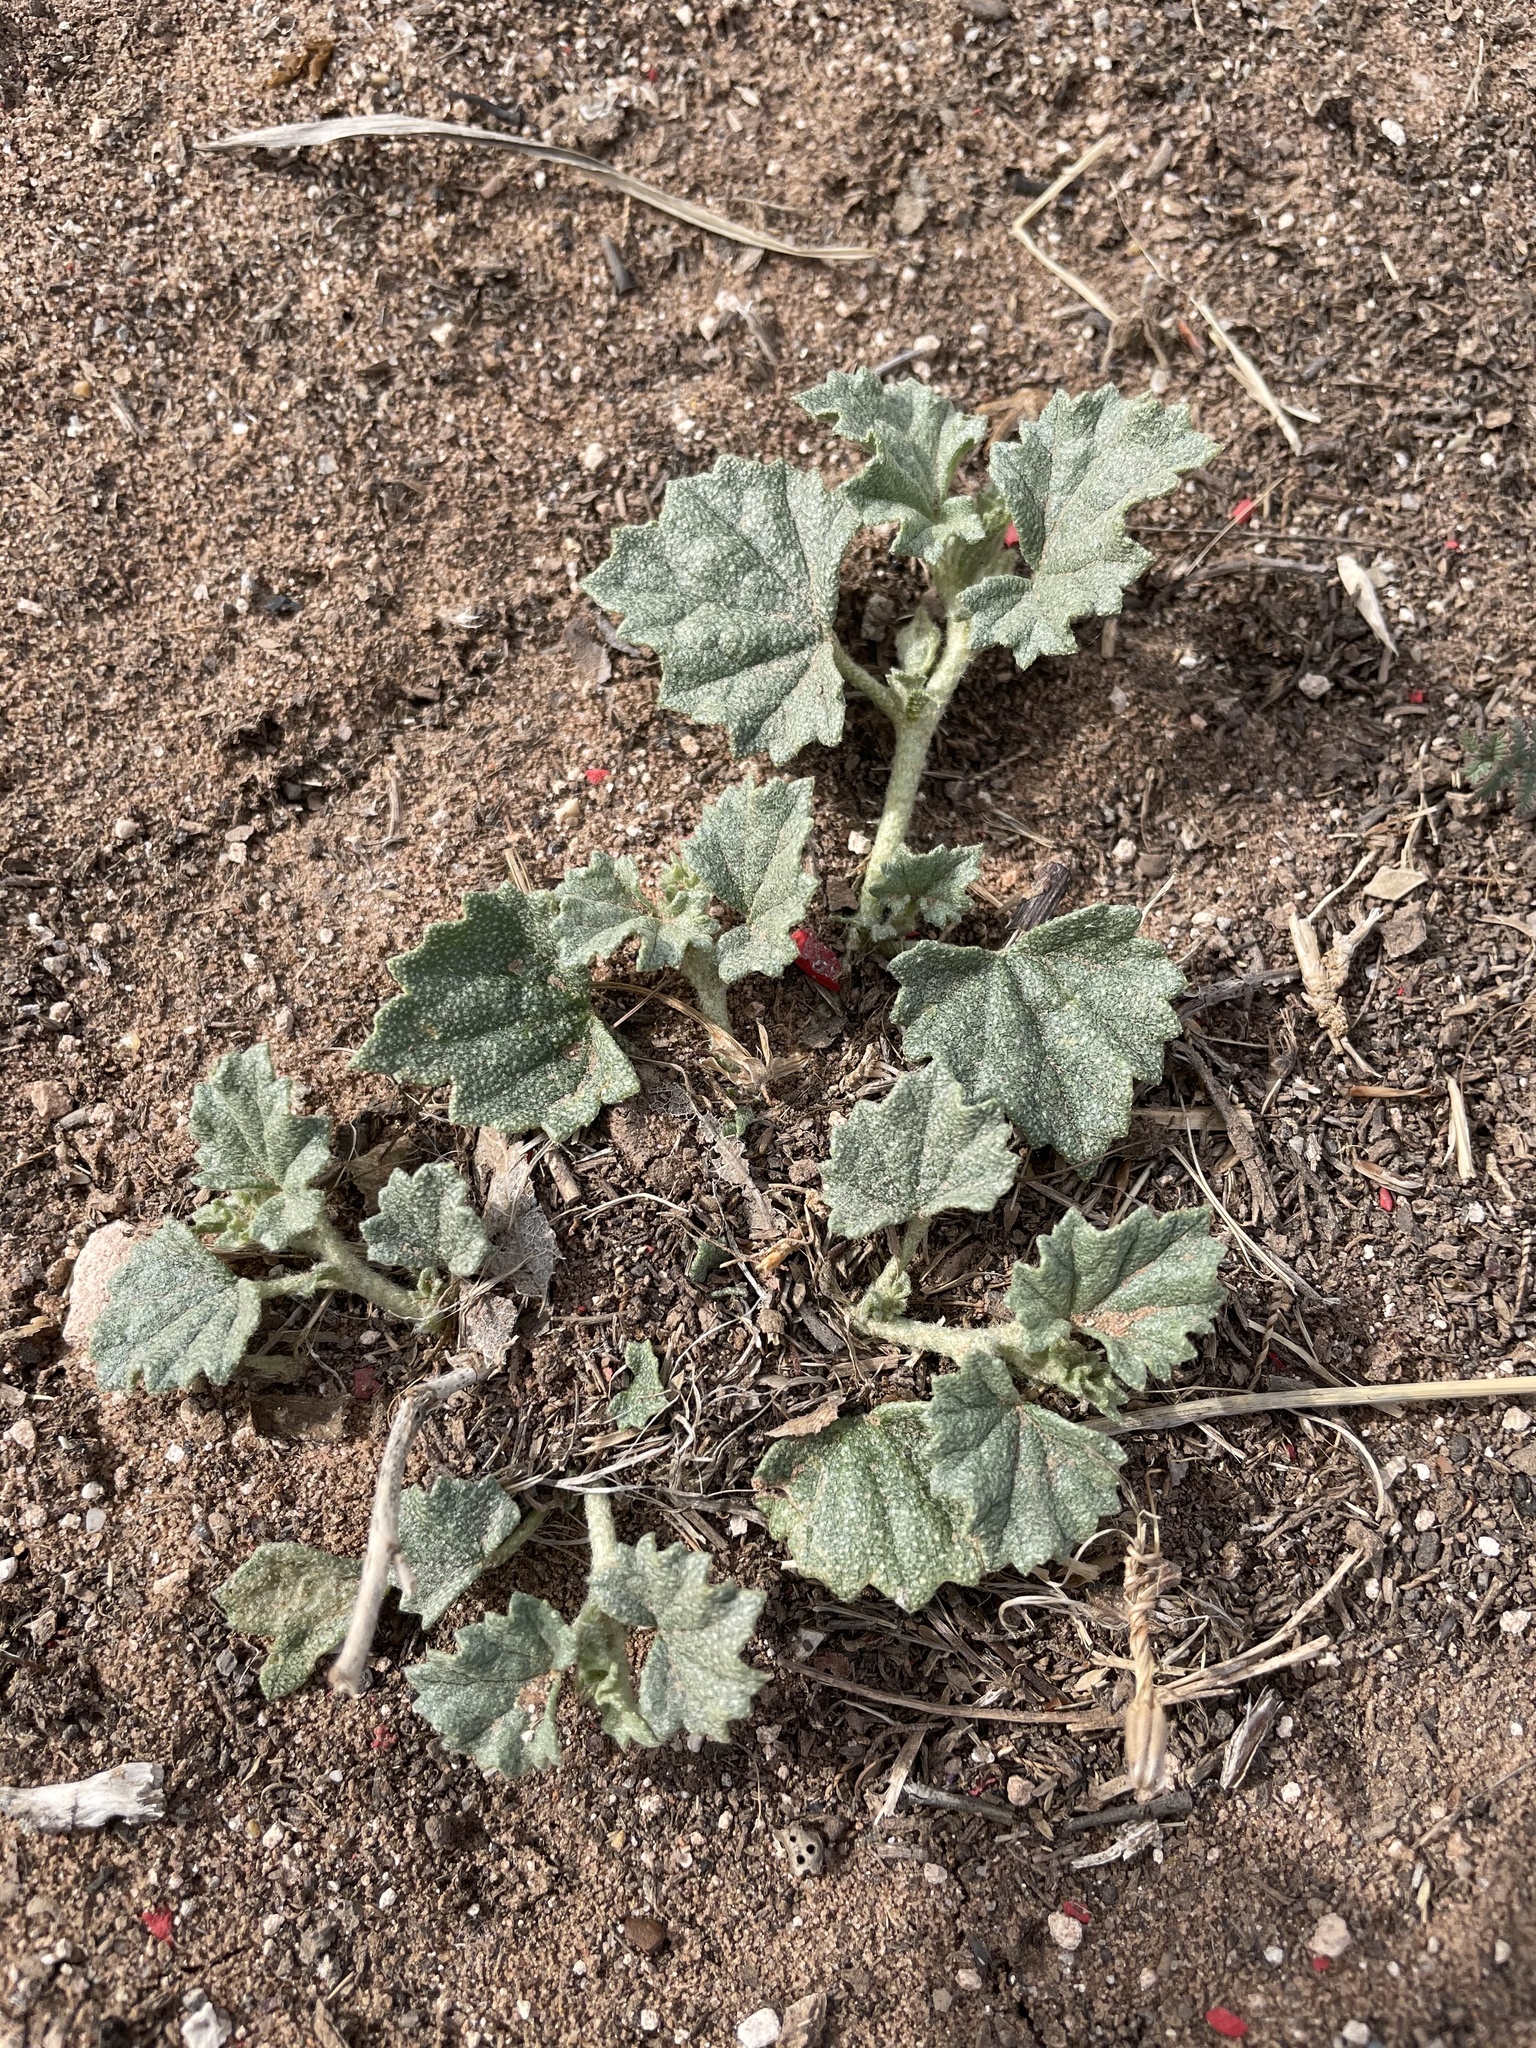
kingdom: Plantae
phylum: Tracheophyta
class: Magnoliopsida
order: Malvales
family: Malvaceae
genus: Malvella
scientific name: Malvella leprosa
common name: Alkali-mallow
